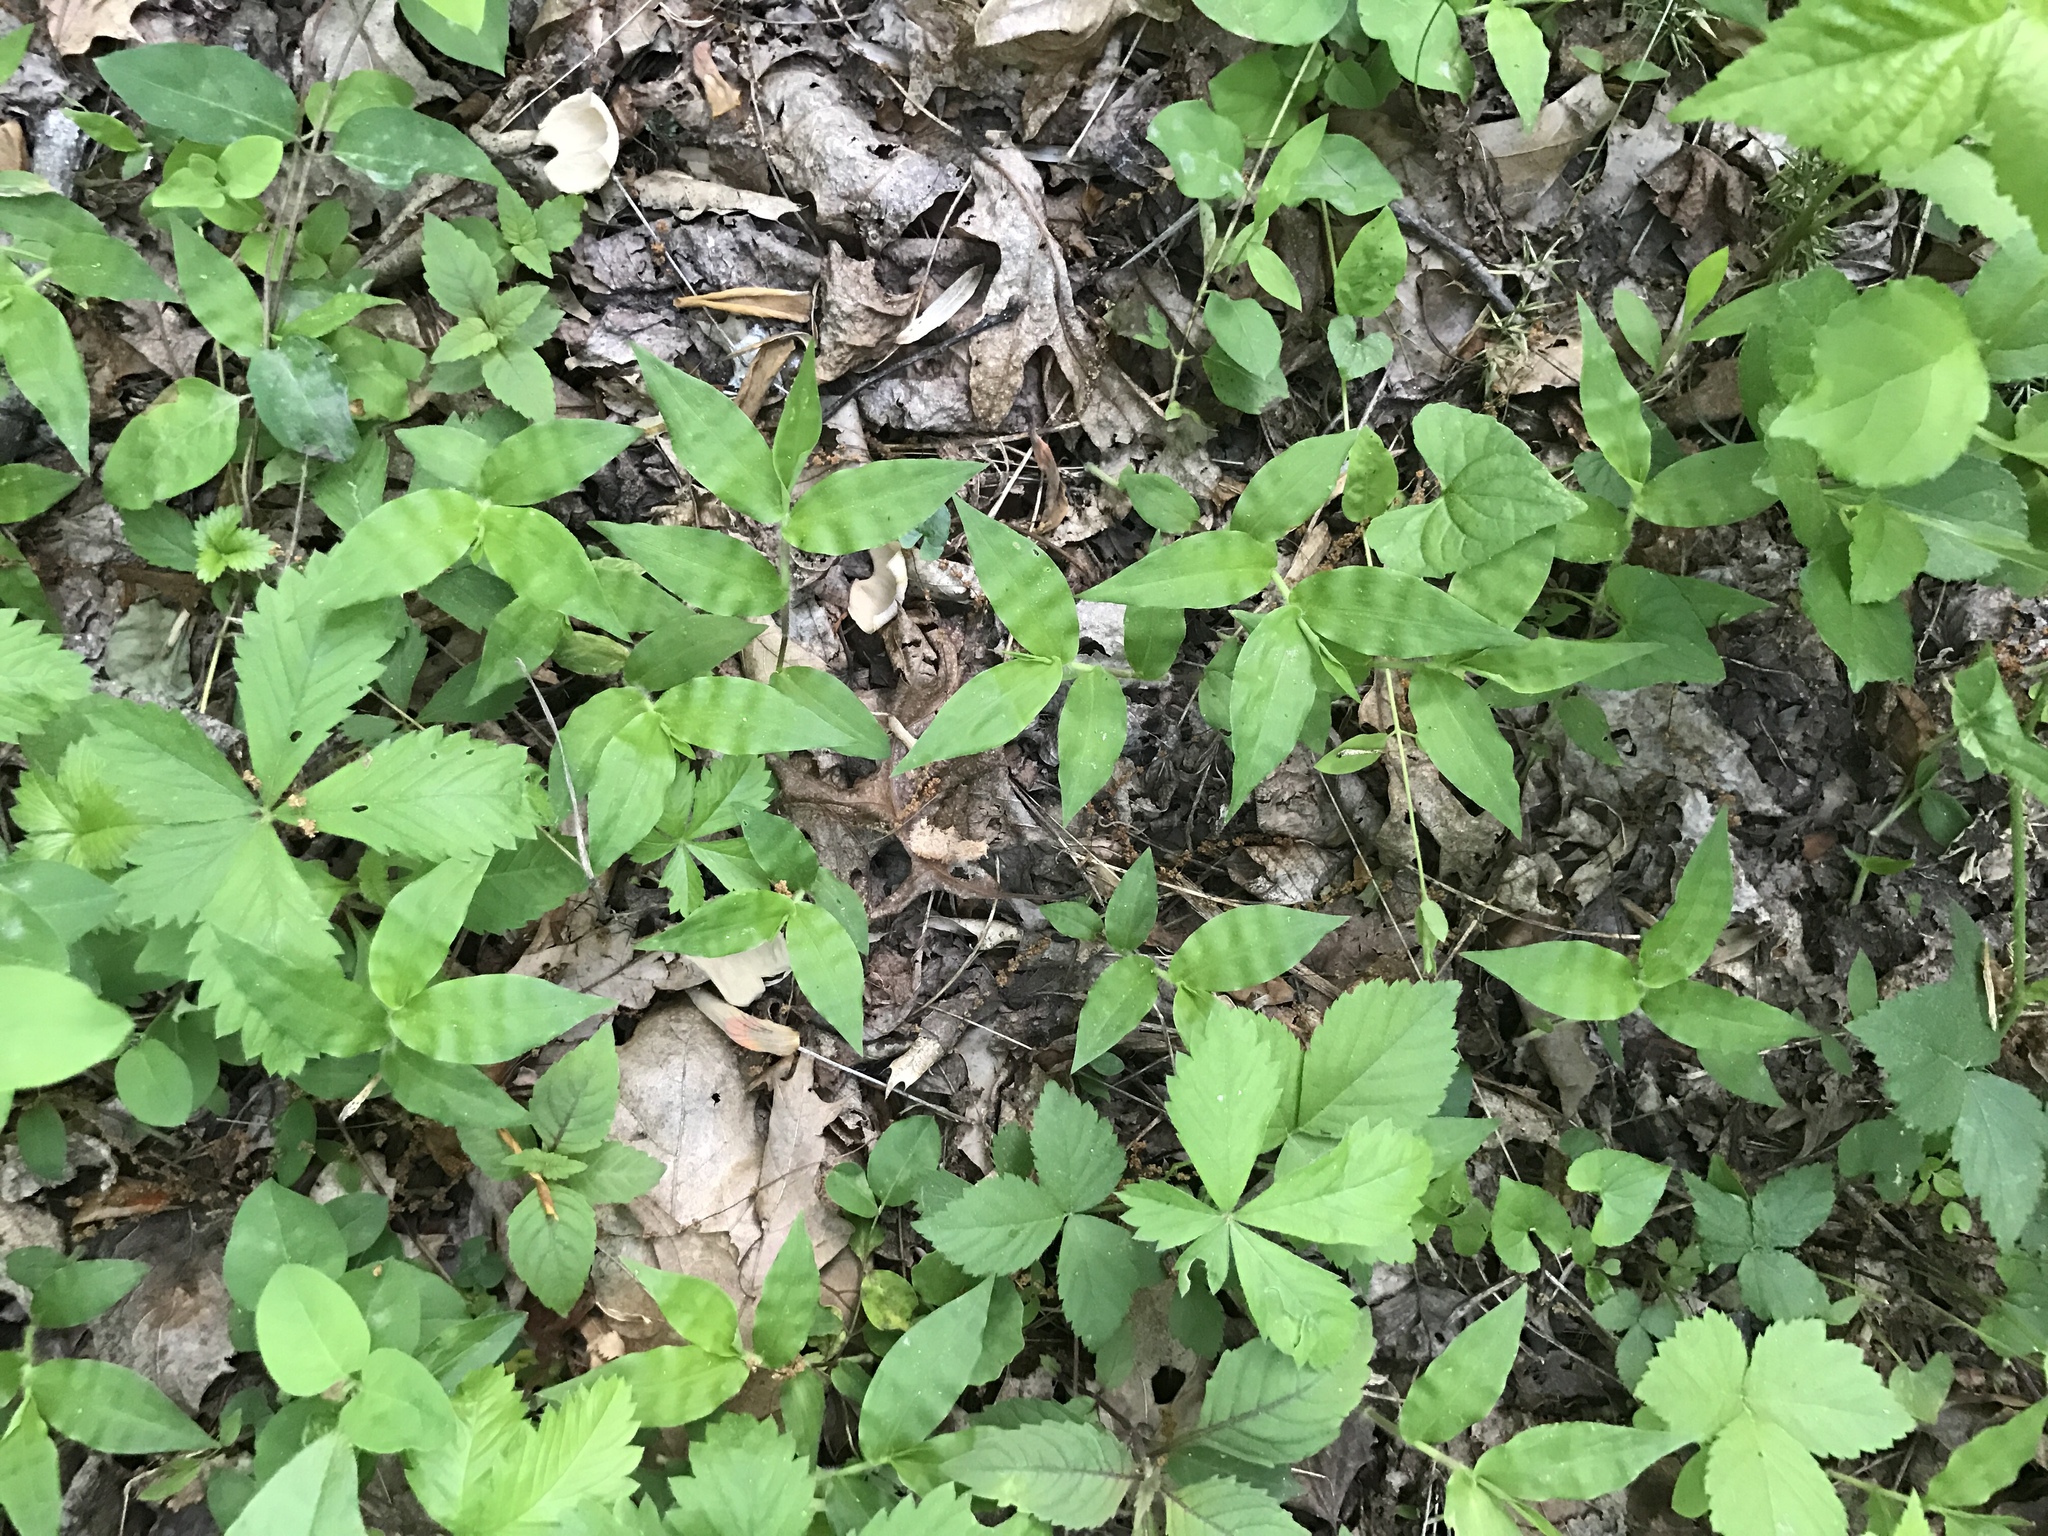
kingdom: Plantae
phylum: Tracheophyta
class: Liliopsida
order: Poales
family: Poaceae
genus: Oplismenus
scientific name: Oplismenus undulatifolius
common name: Wavyleaf basketgrass
